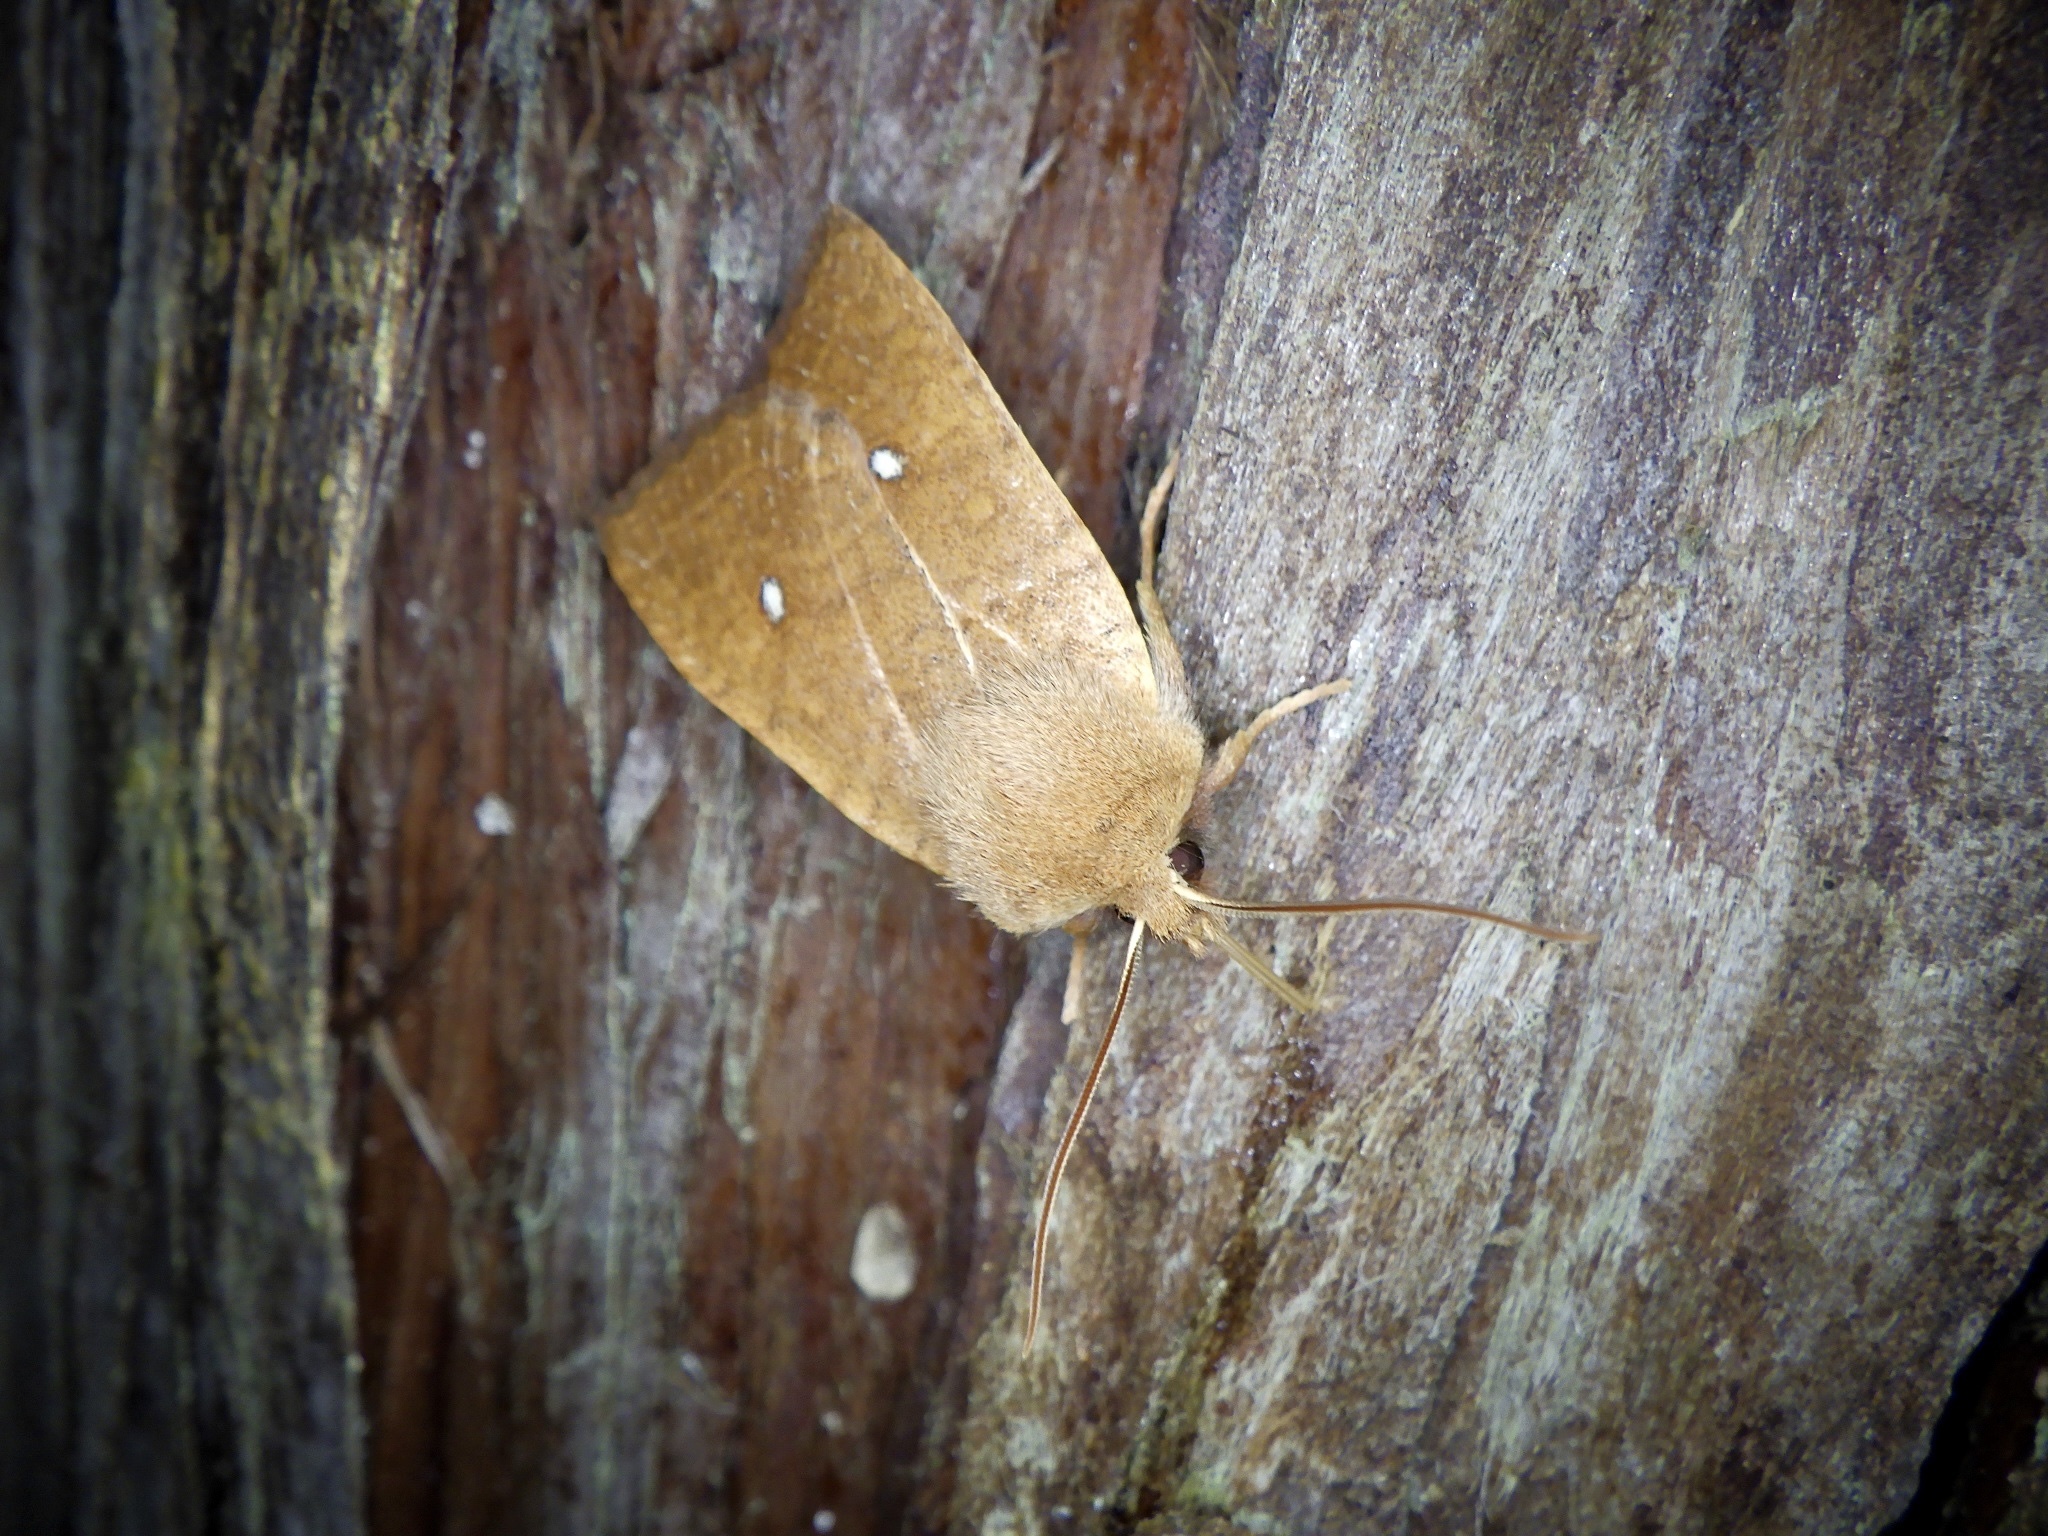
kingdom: Animalia
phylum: Arthropoda
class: Insecta
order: Lepidoptera
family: Noctuidae
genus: Conistra
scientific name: Conistra albipuncta
